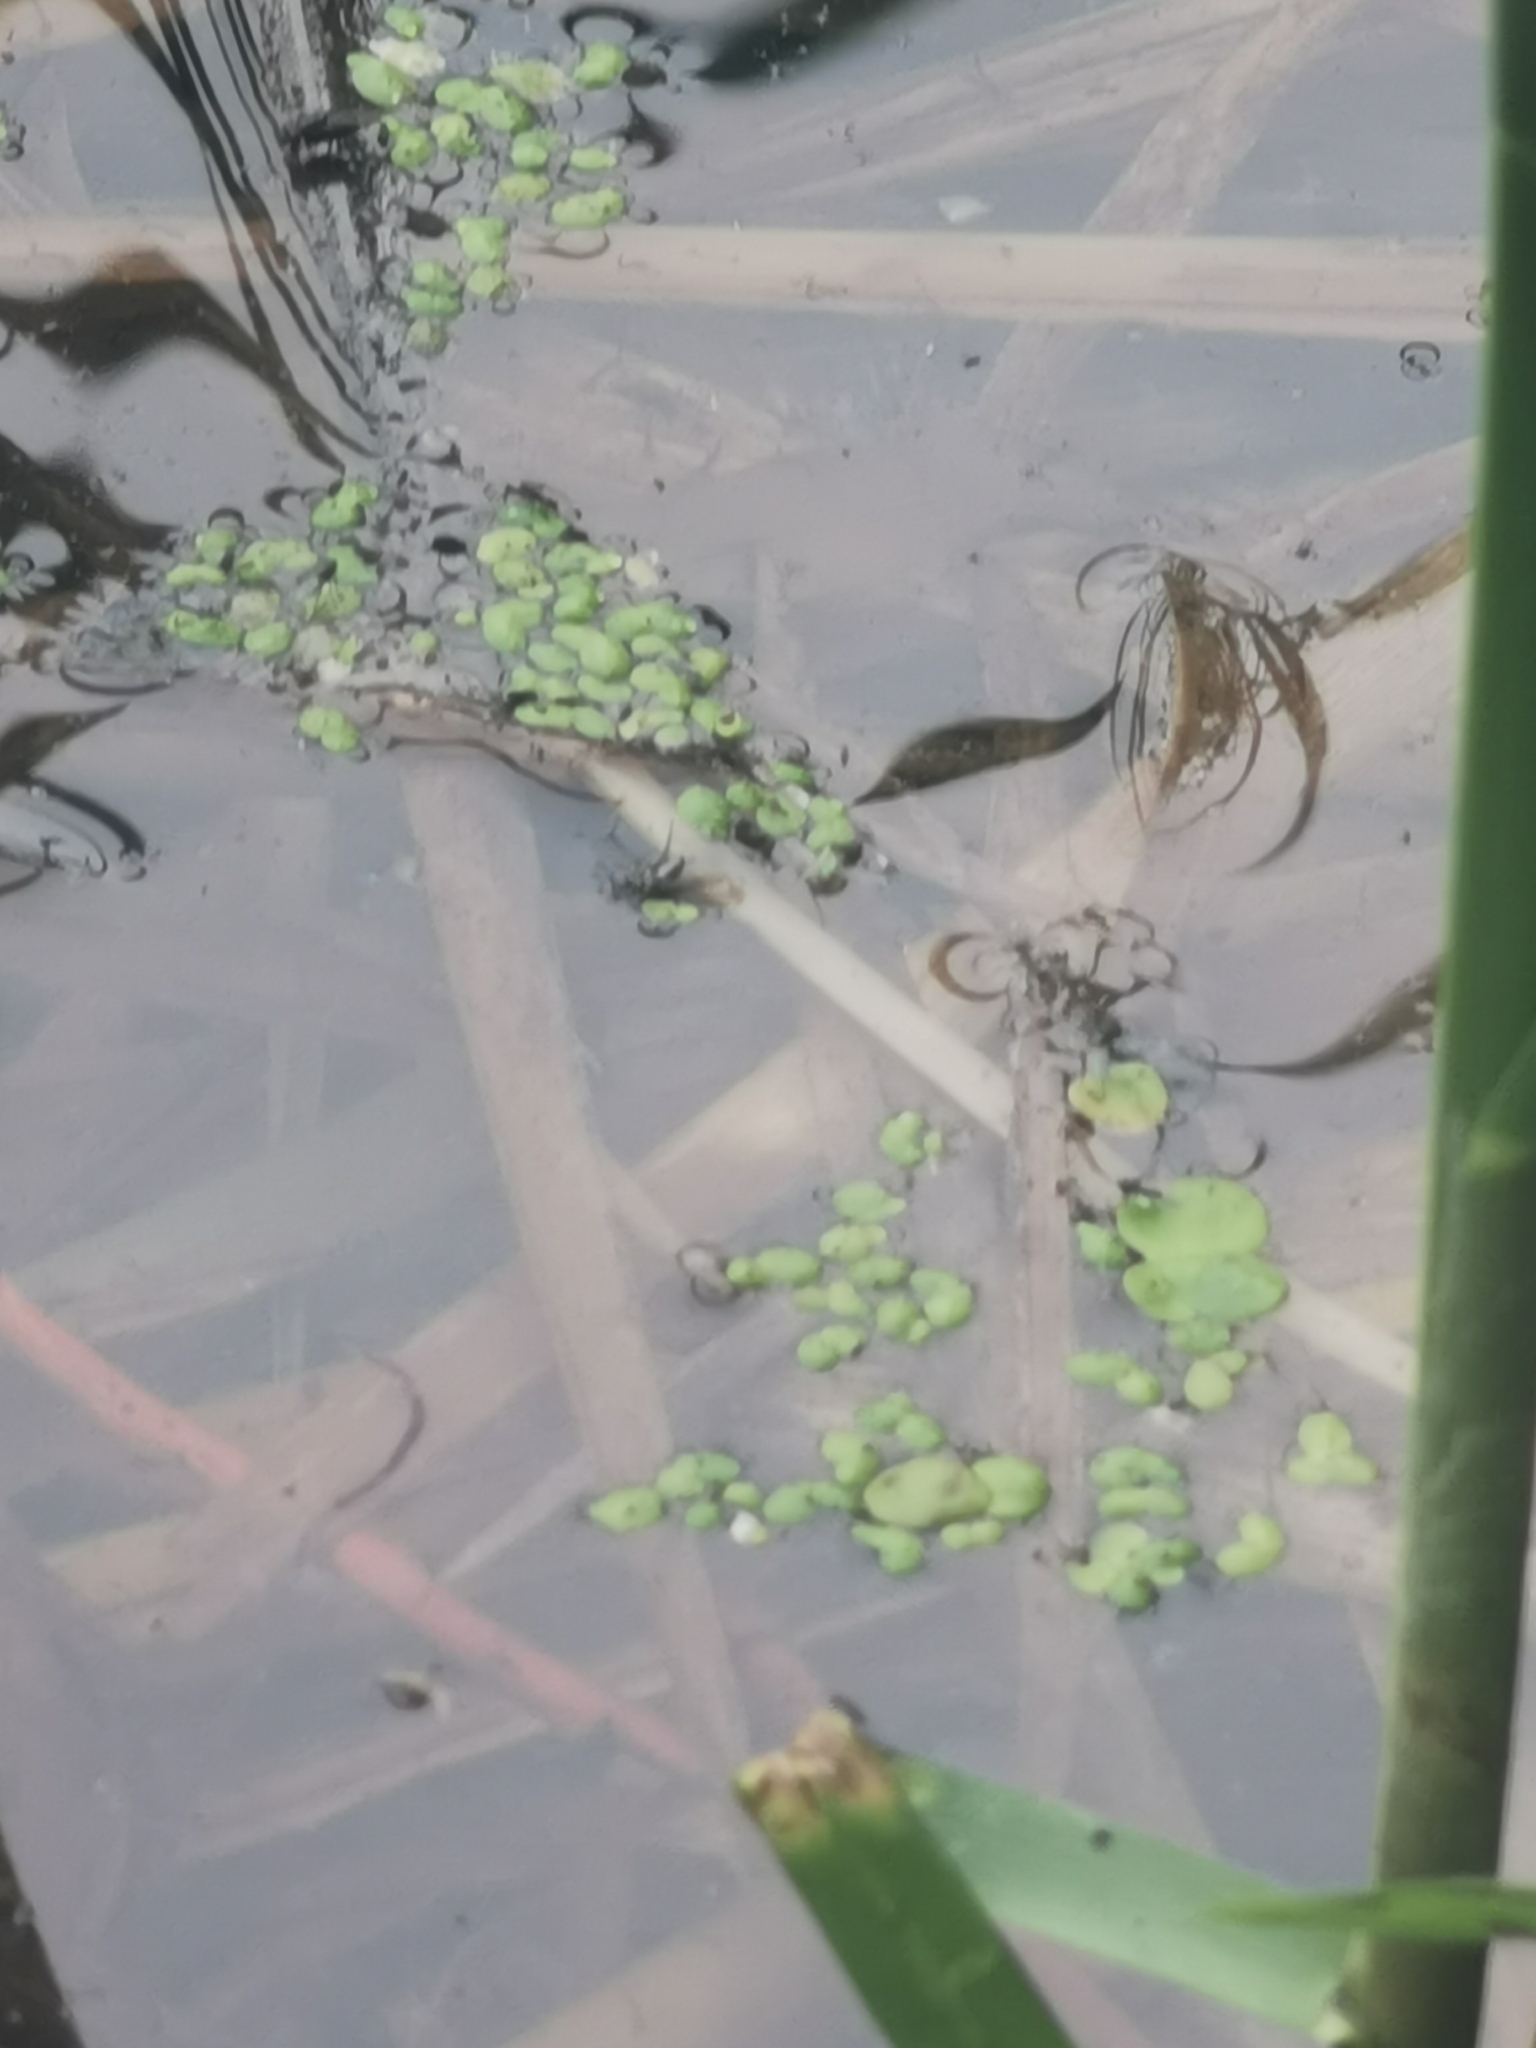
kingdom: Plantae
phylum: Tracheophyta
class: Liliopsida
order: Alismatales
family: Araceae
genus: Lemna
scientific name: Lemna minor
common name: Common duckweed
